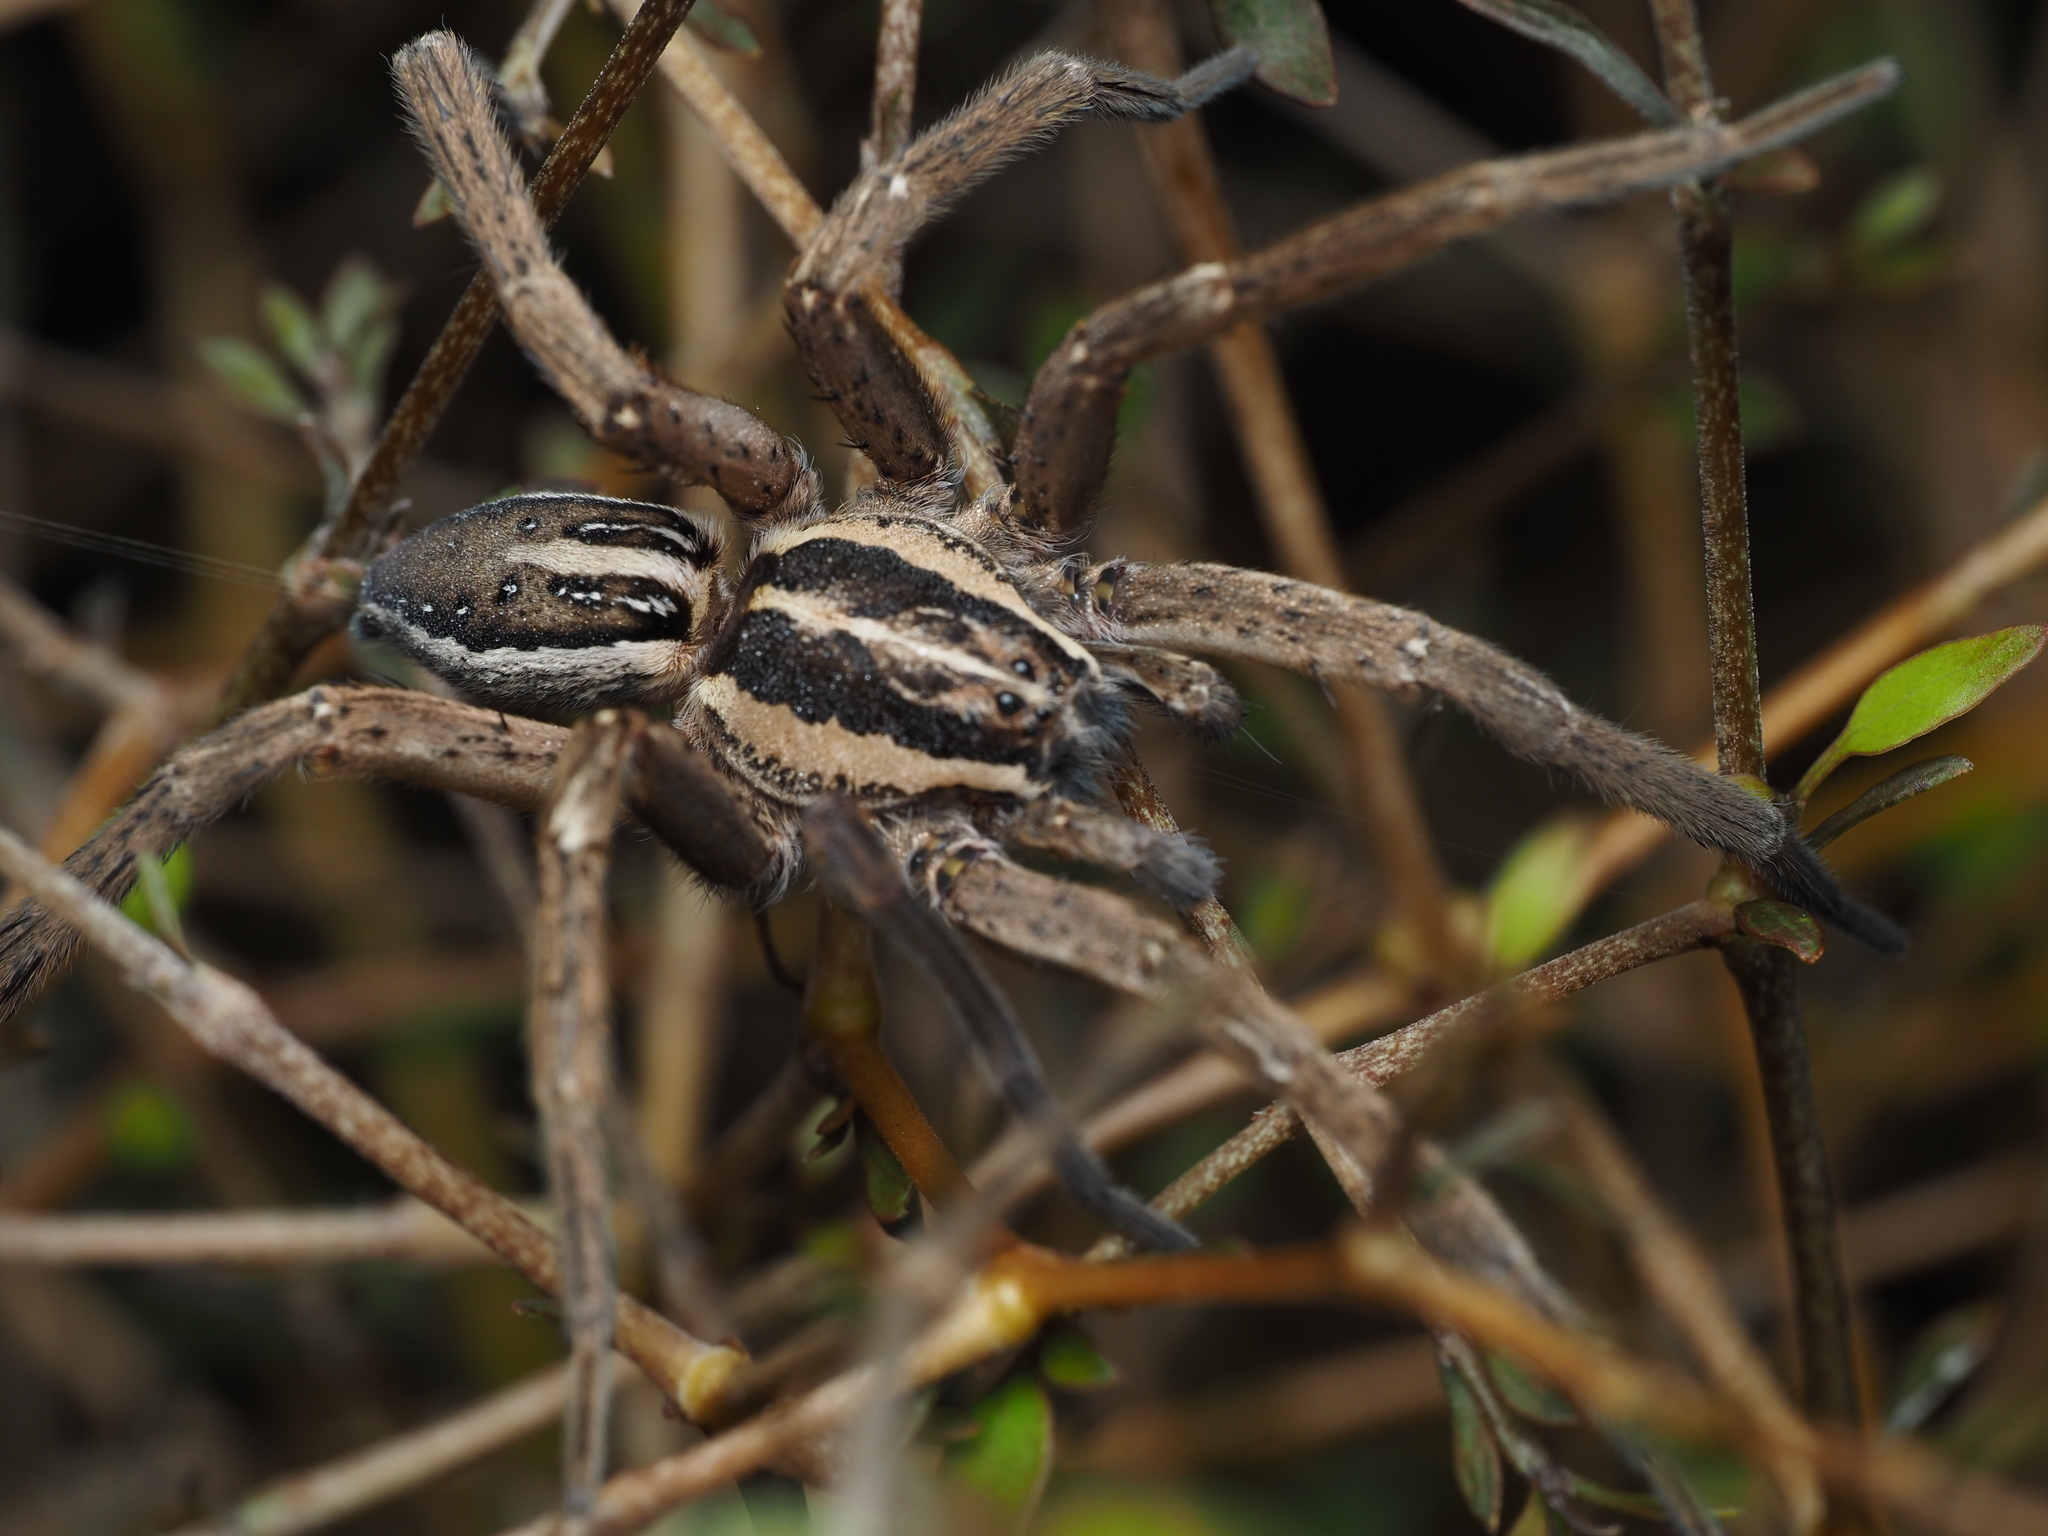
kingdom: Animalia
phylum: Arthropoda
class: Arachnida
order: Araneae
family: Pisauridae
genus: Dolomedes
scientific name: Dolomedes minor
